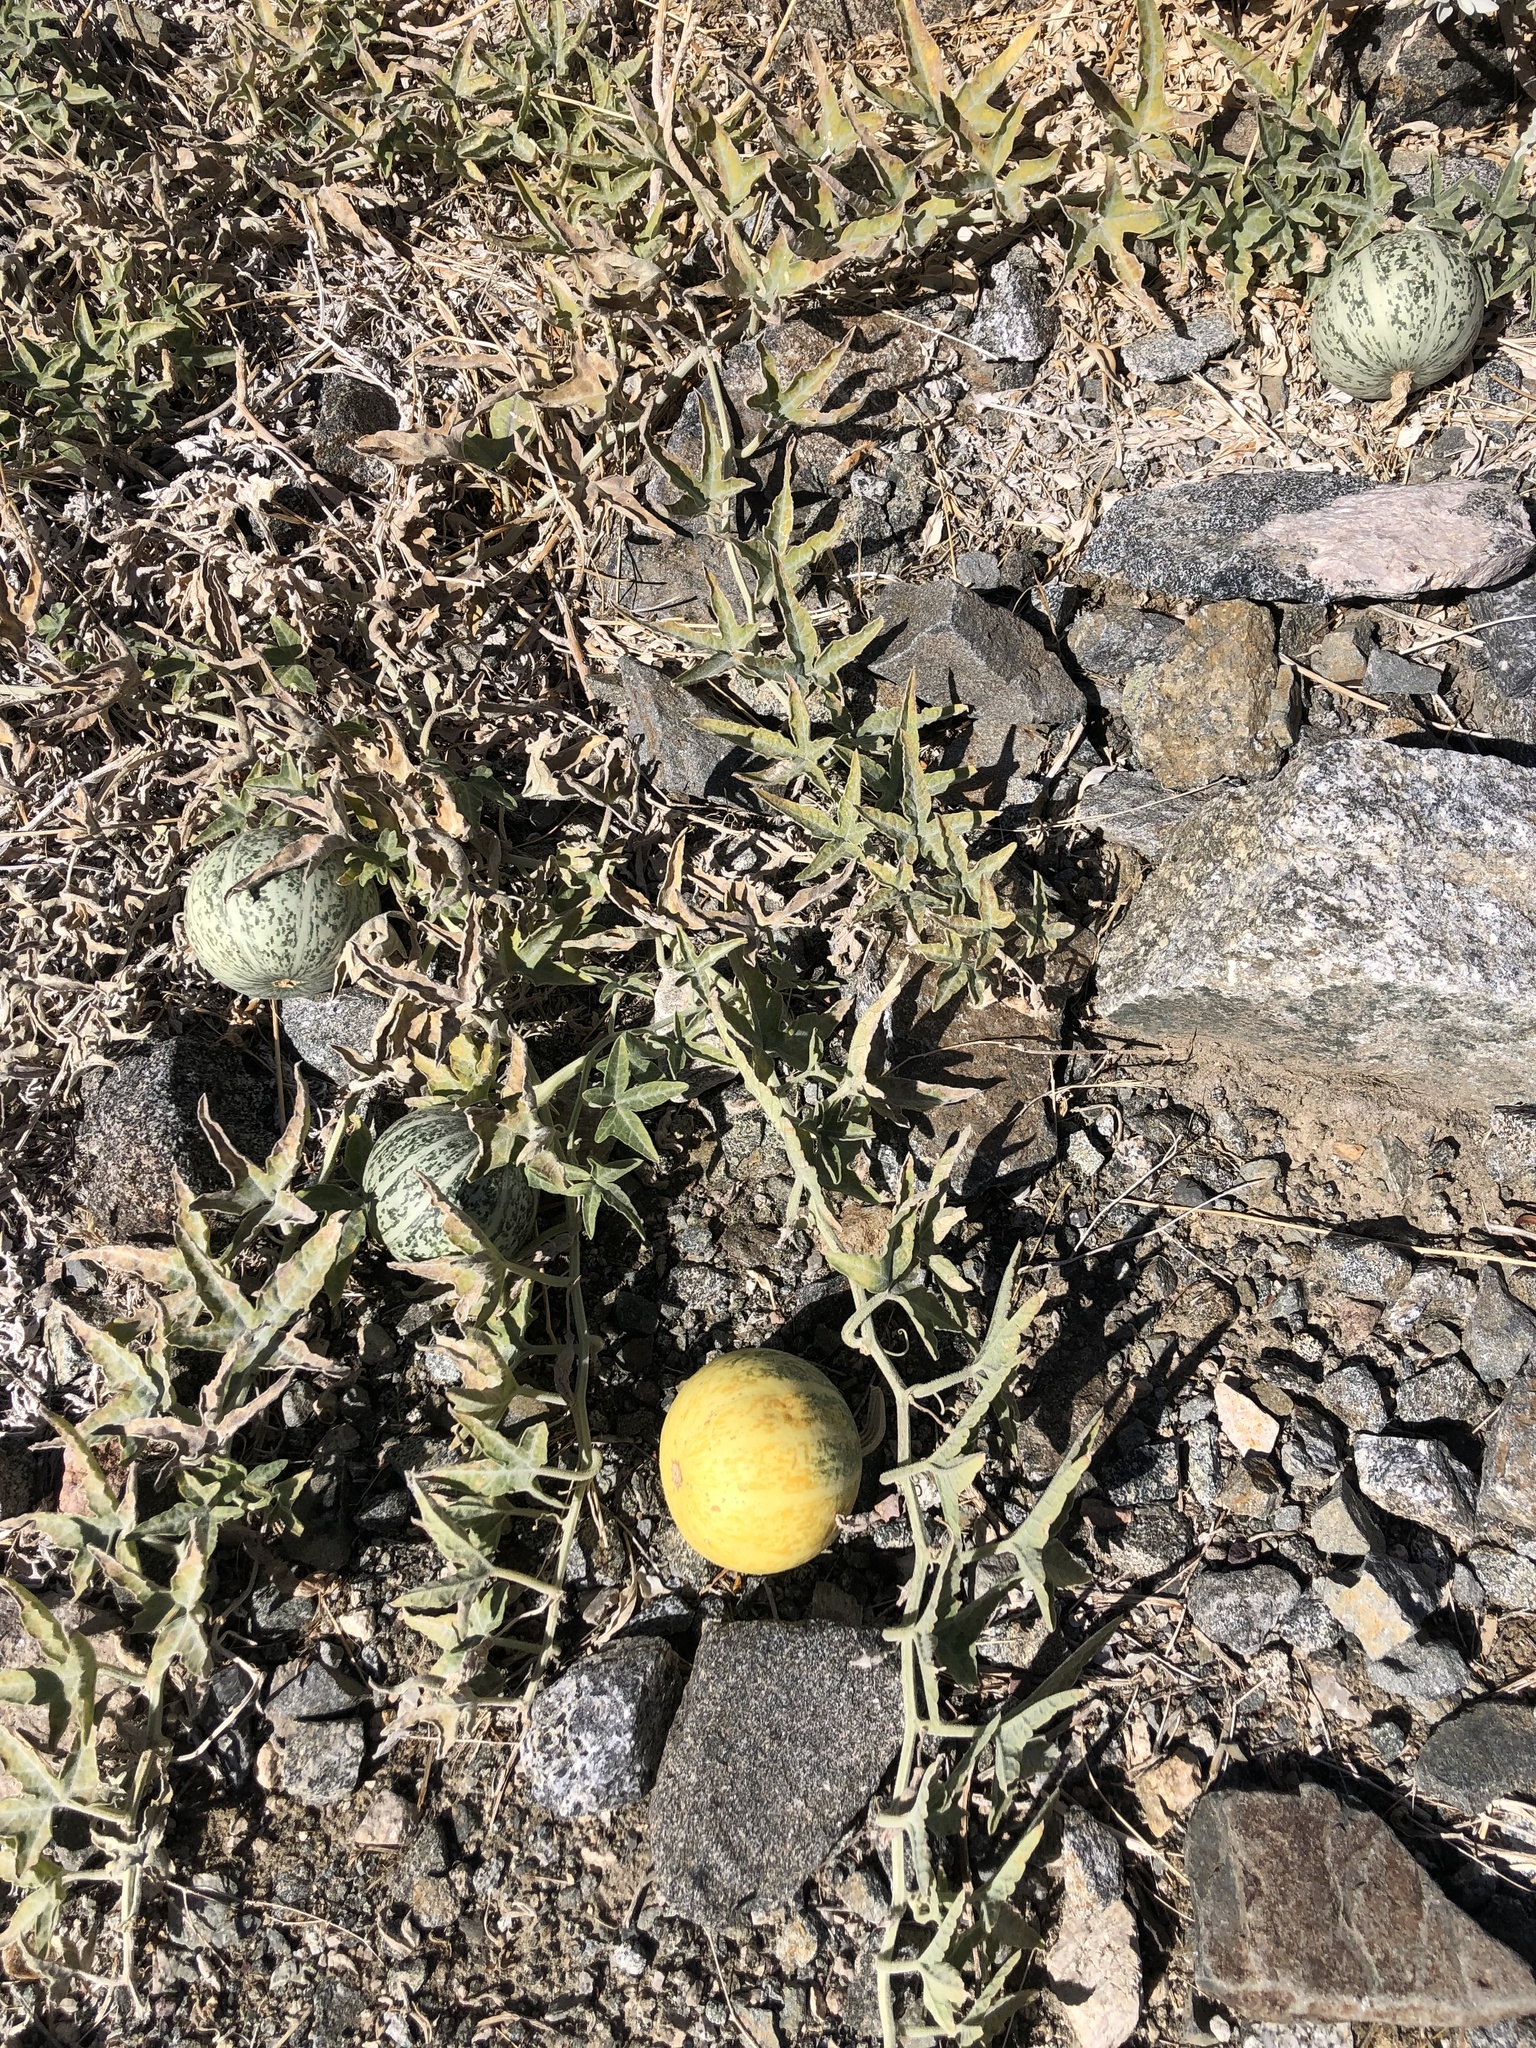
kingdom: Plantae
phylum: Tracheophyta
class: Magnoliopsida
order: Cucurbitales
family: Cucurbitaceae
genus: Cucurbita
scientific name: Cucurbita palmata
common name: Coyote-melon
